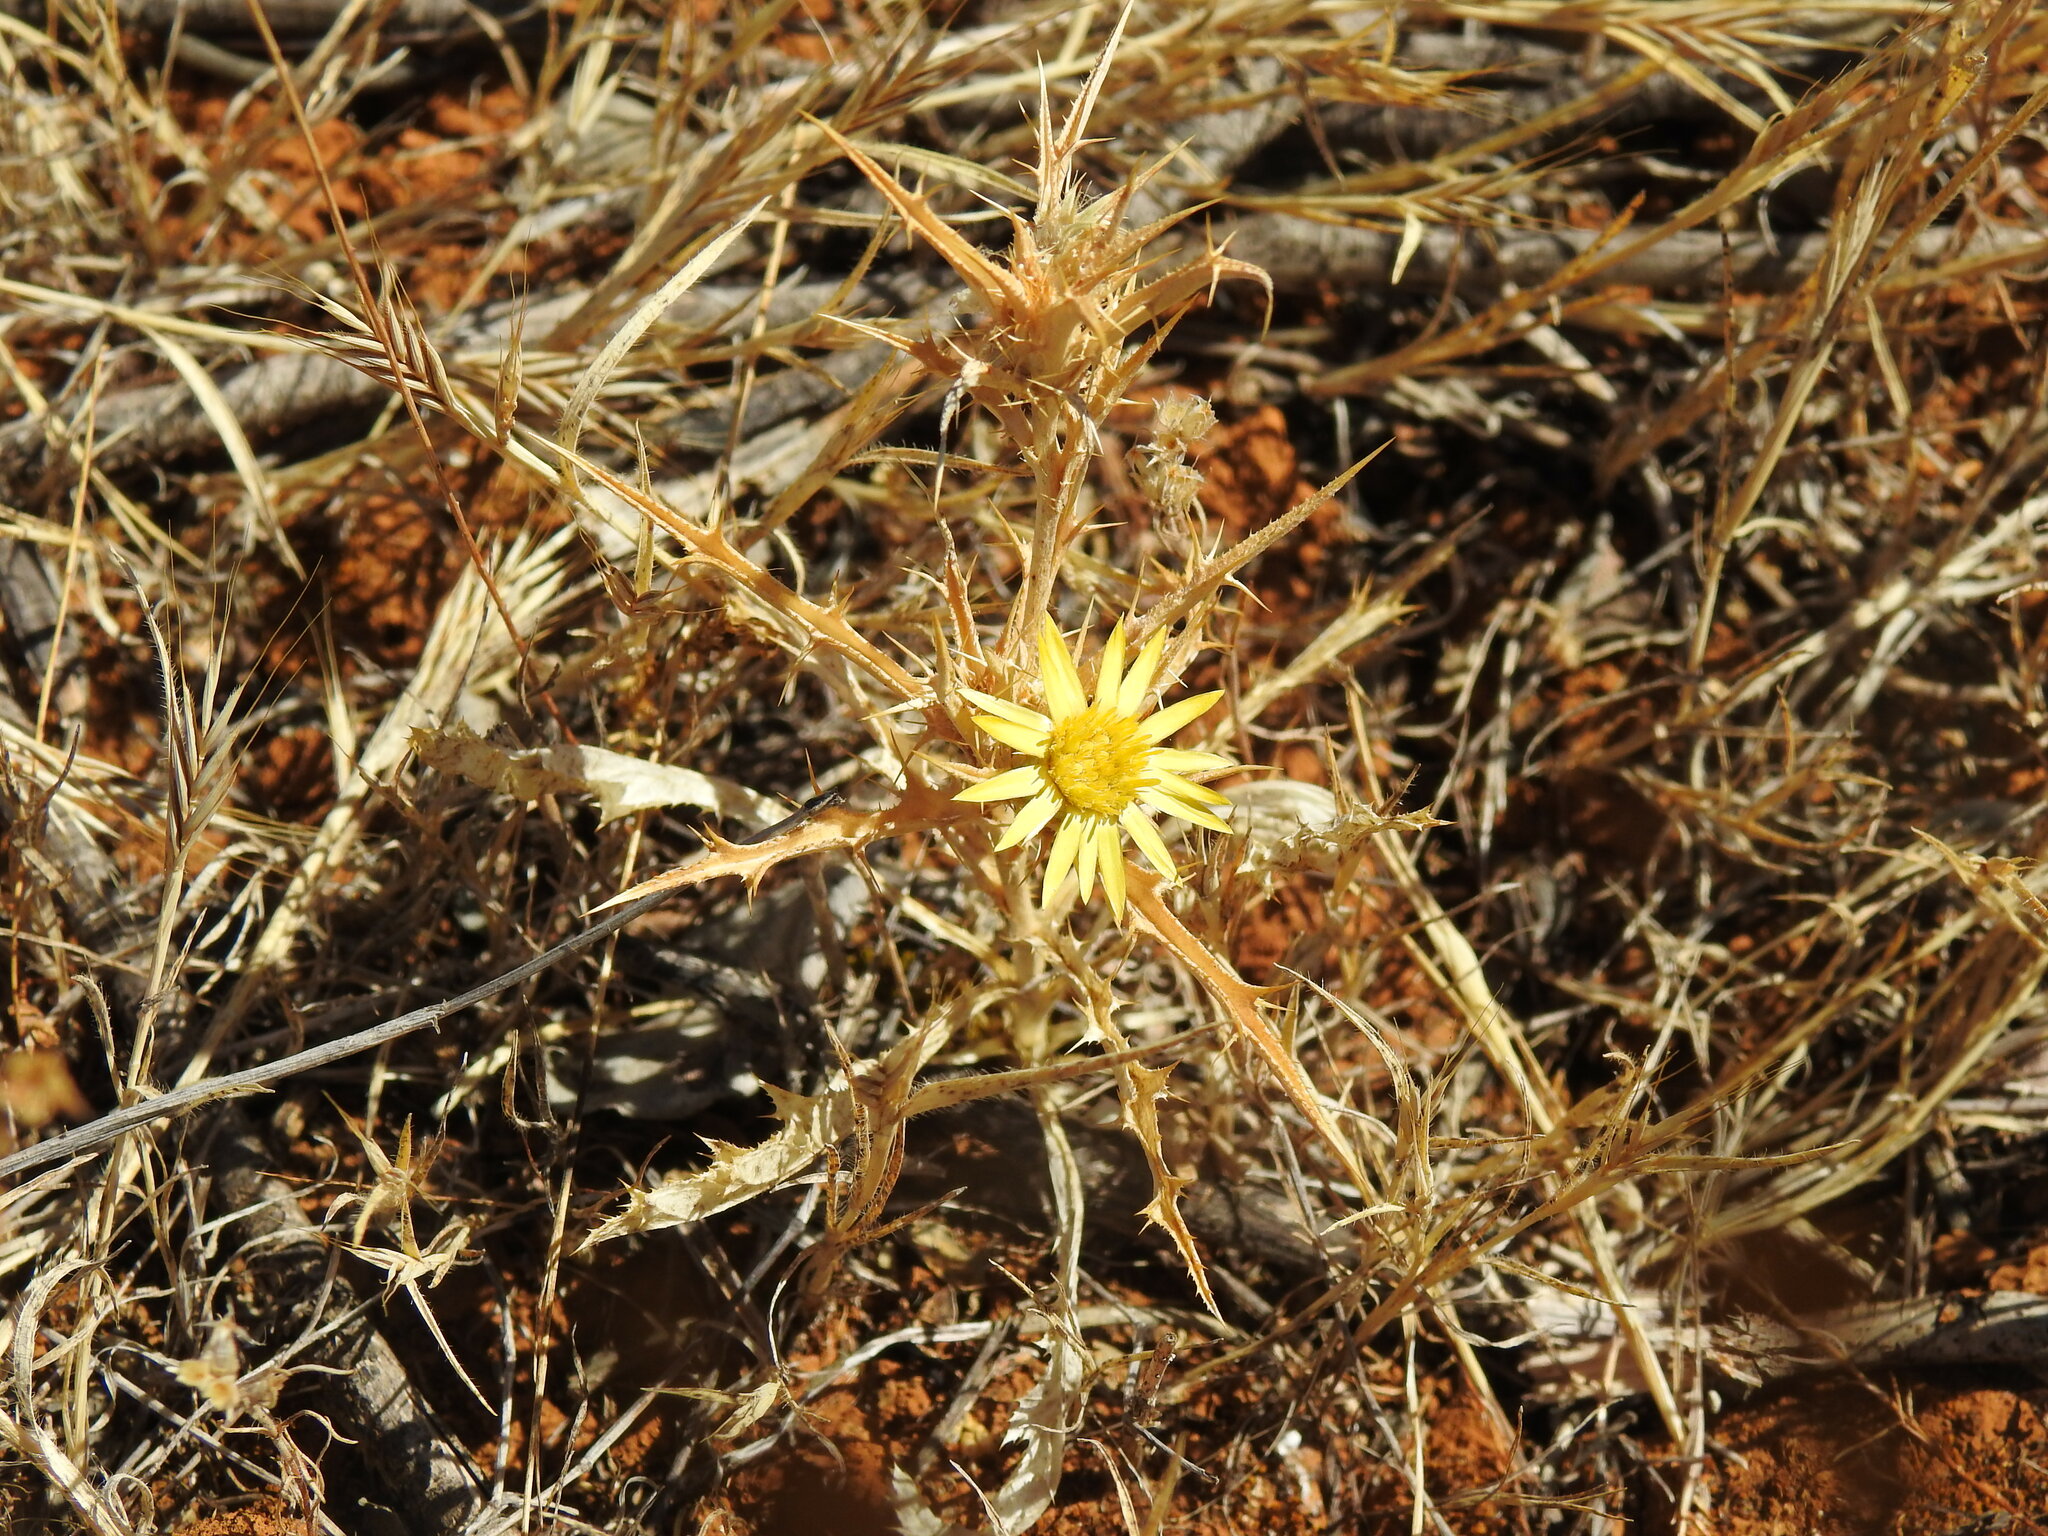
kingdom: Plantae
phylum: Tracheophyta
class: Magnoliopsida
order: Asterales
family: Asteraceae
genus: Carlina
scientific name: Carlina racemosa
